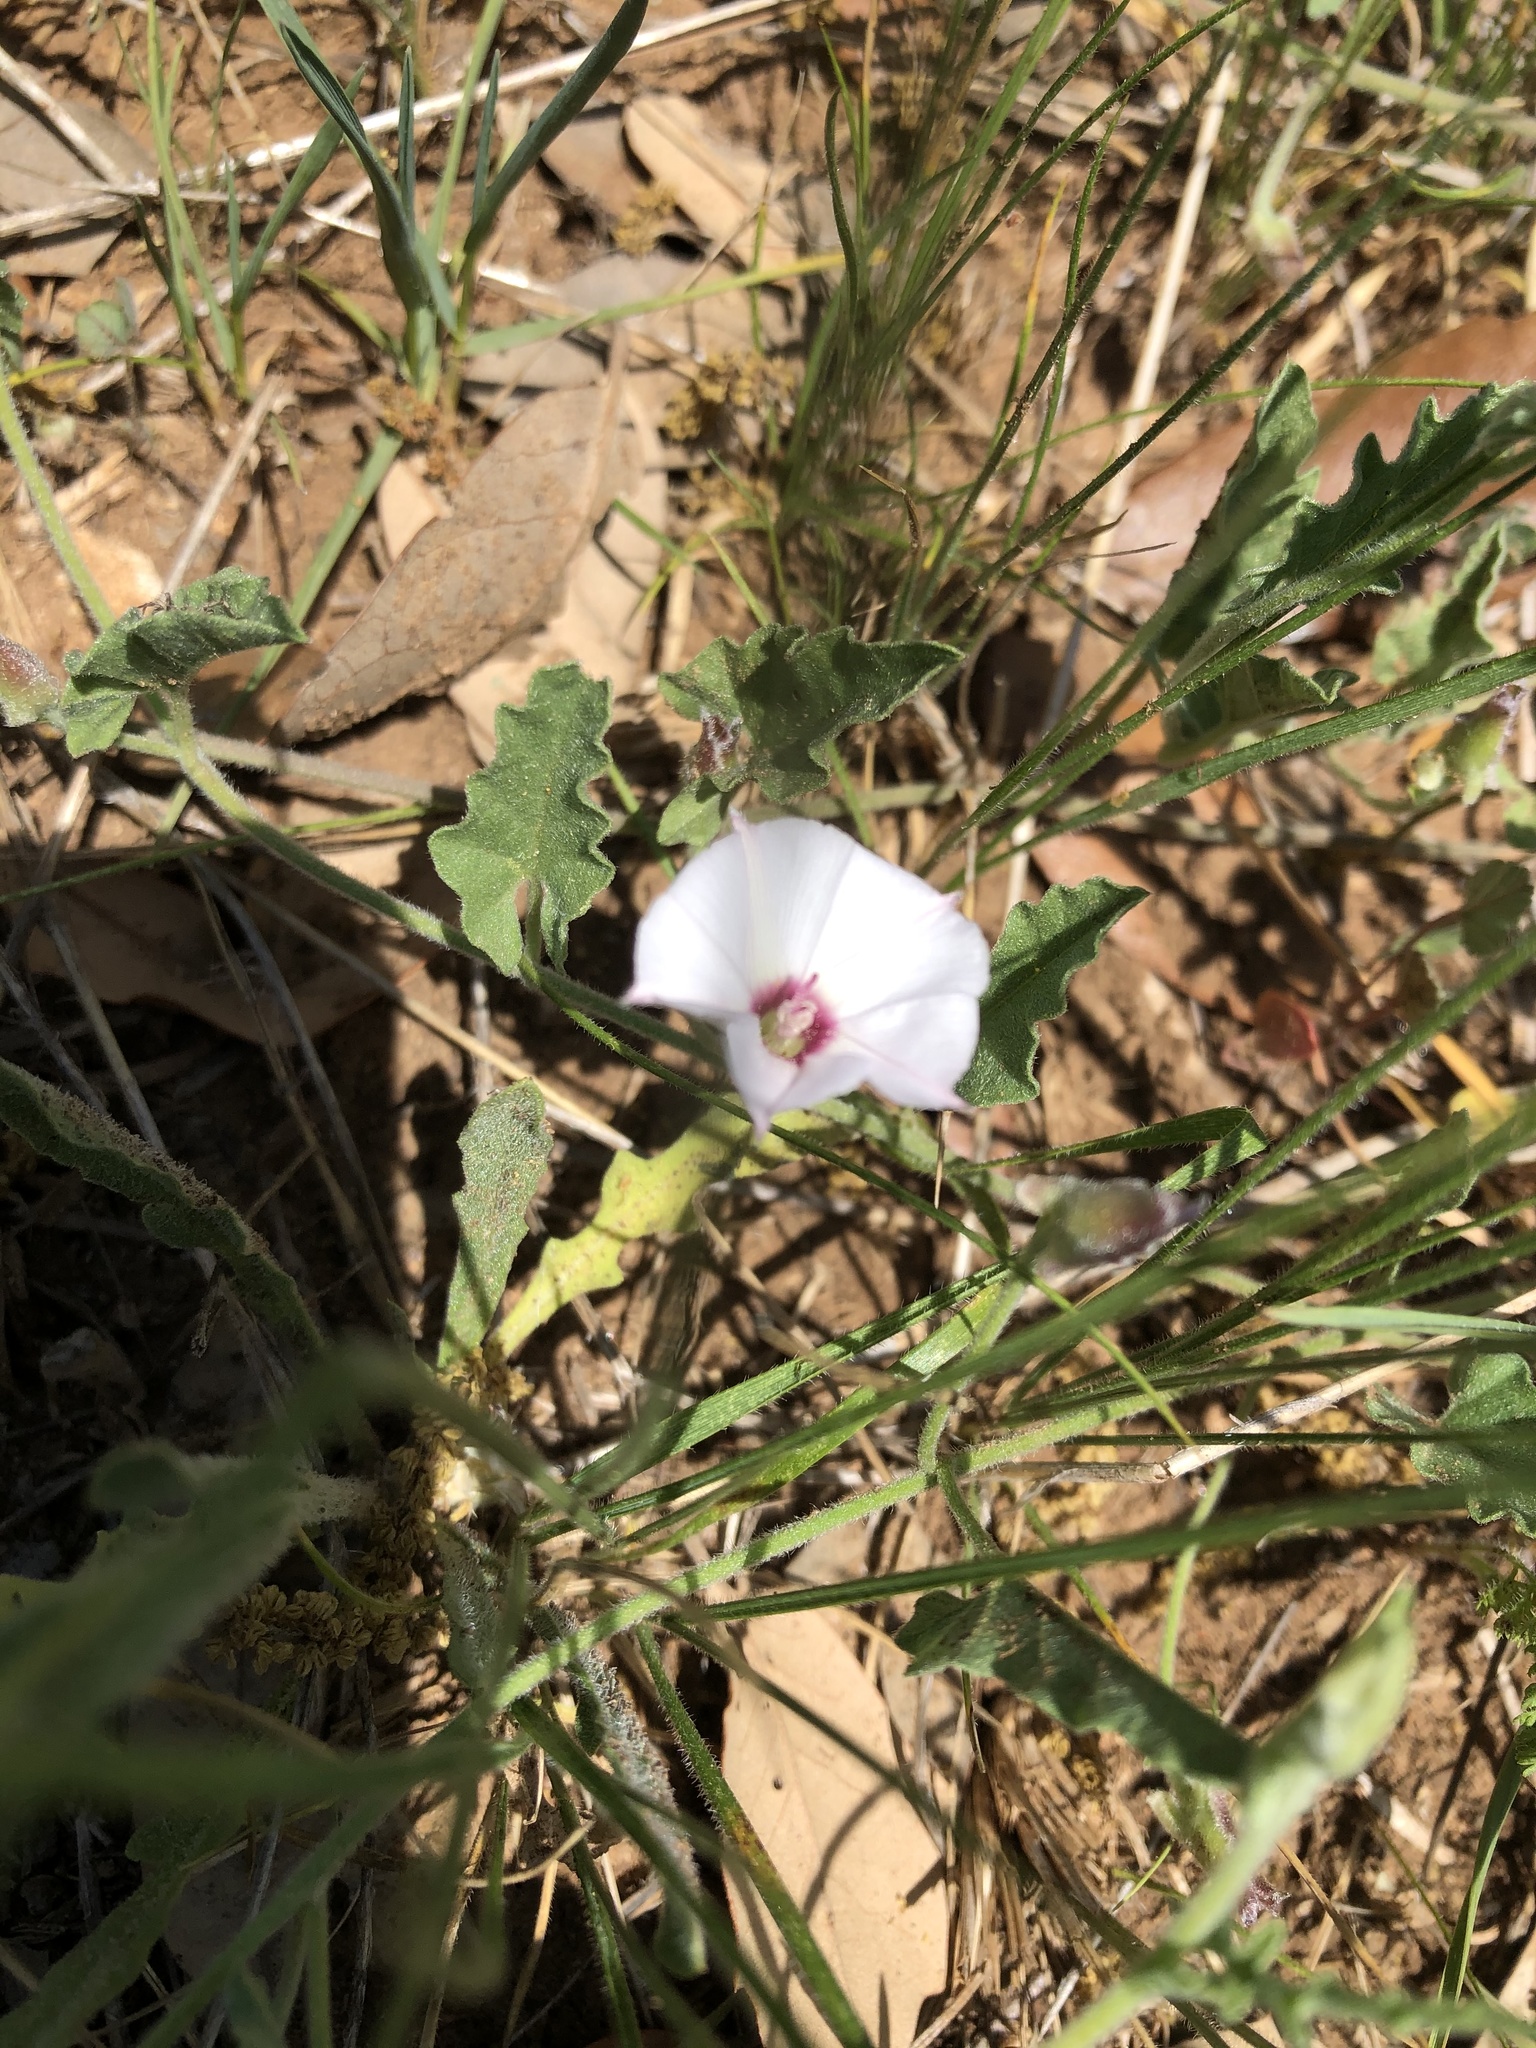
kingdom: Plantae
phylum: Tracheophyta
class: Magnoliopsida
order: Solanales
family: Convolvulaceae
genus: Convolvulus
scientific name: Convolvulus equitans
